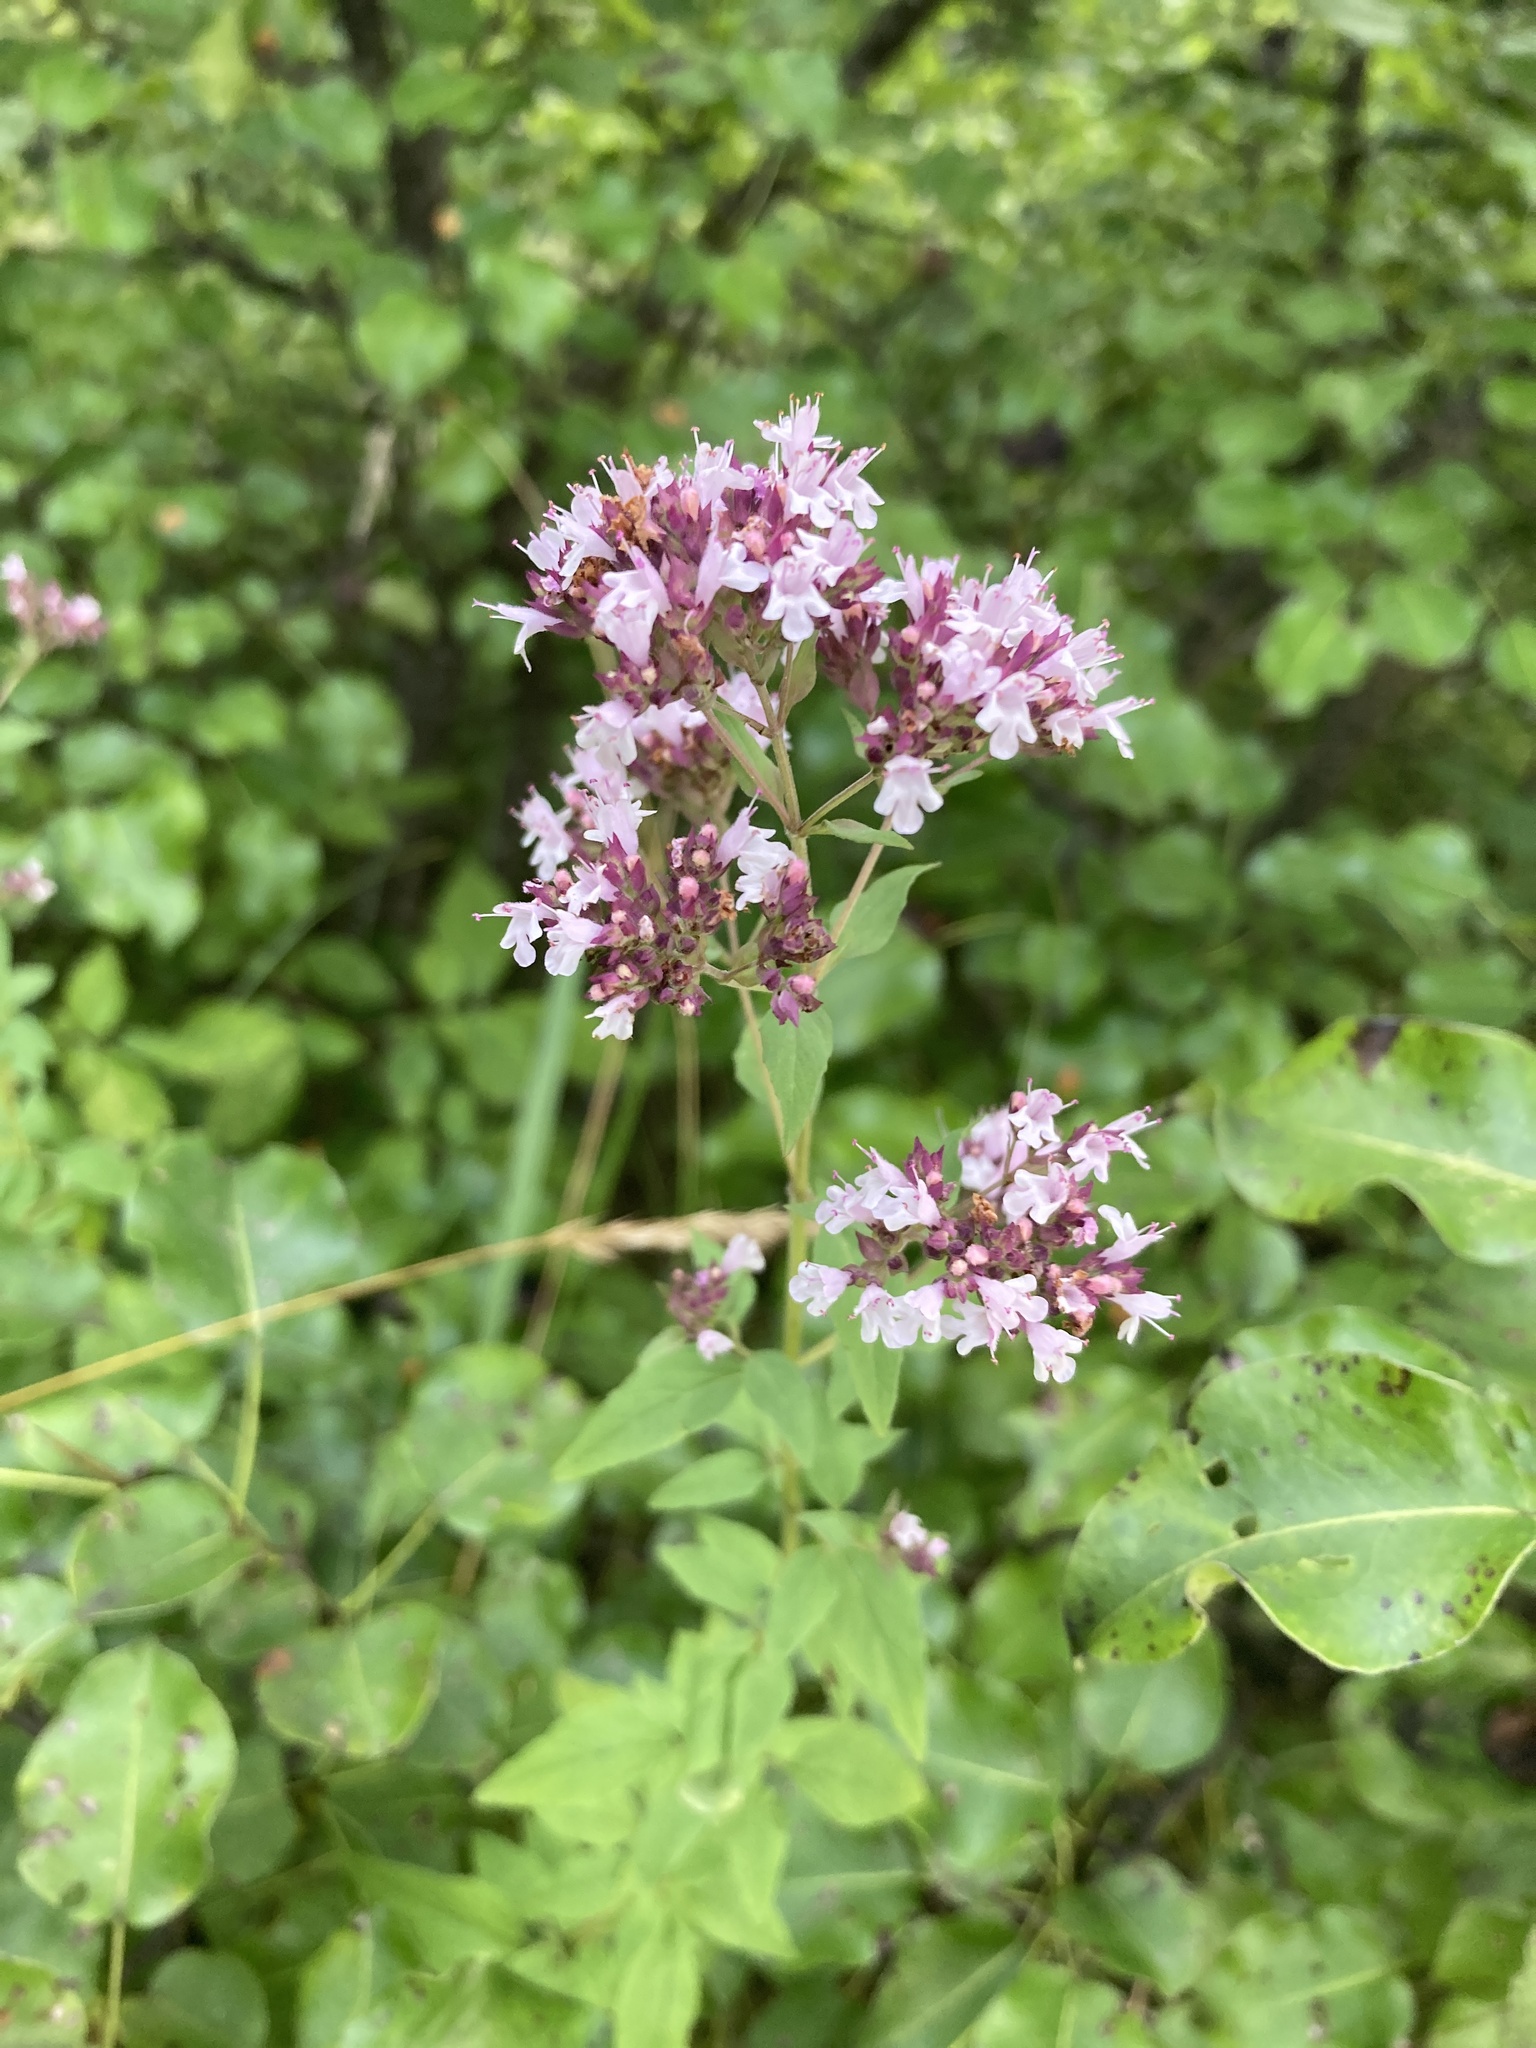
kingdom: Plantae
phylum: Tracheophyta
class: Magnoliopsida
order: Lamiales
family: Lamiaceae
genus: Origanum
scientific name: Origanum vulgare
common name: Wild marjoram
